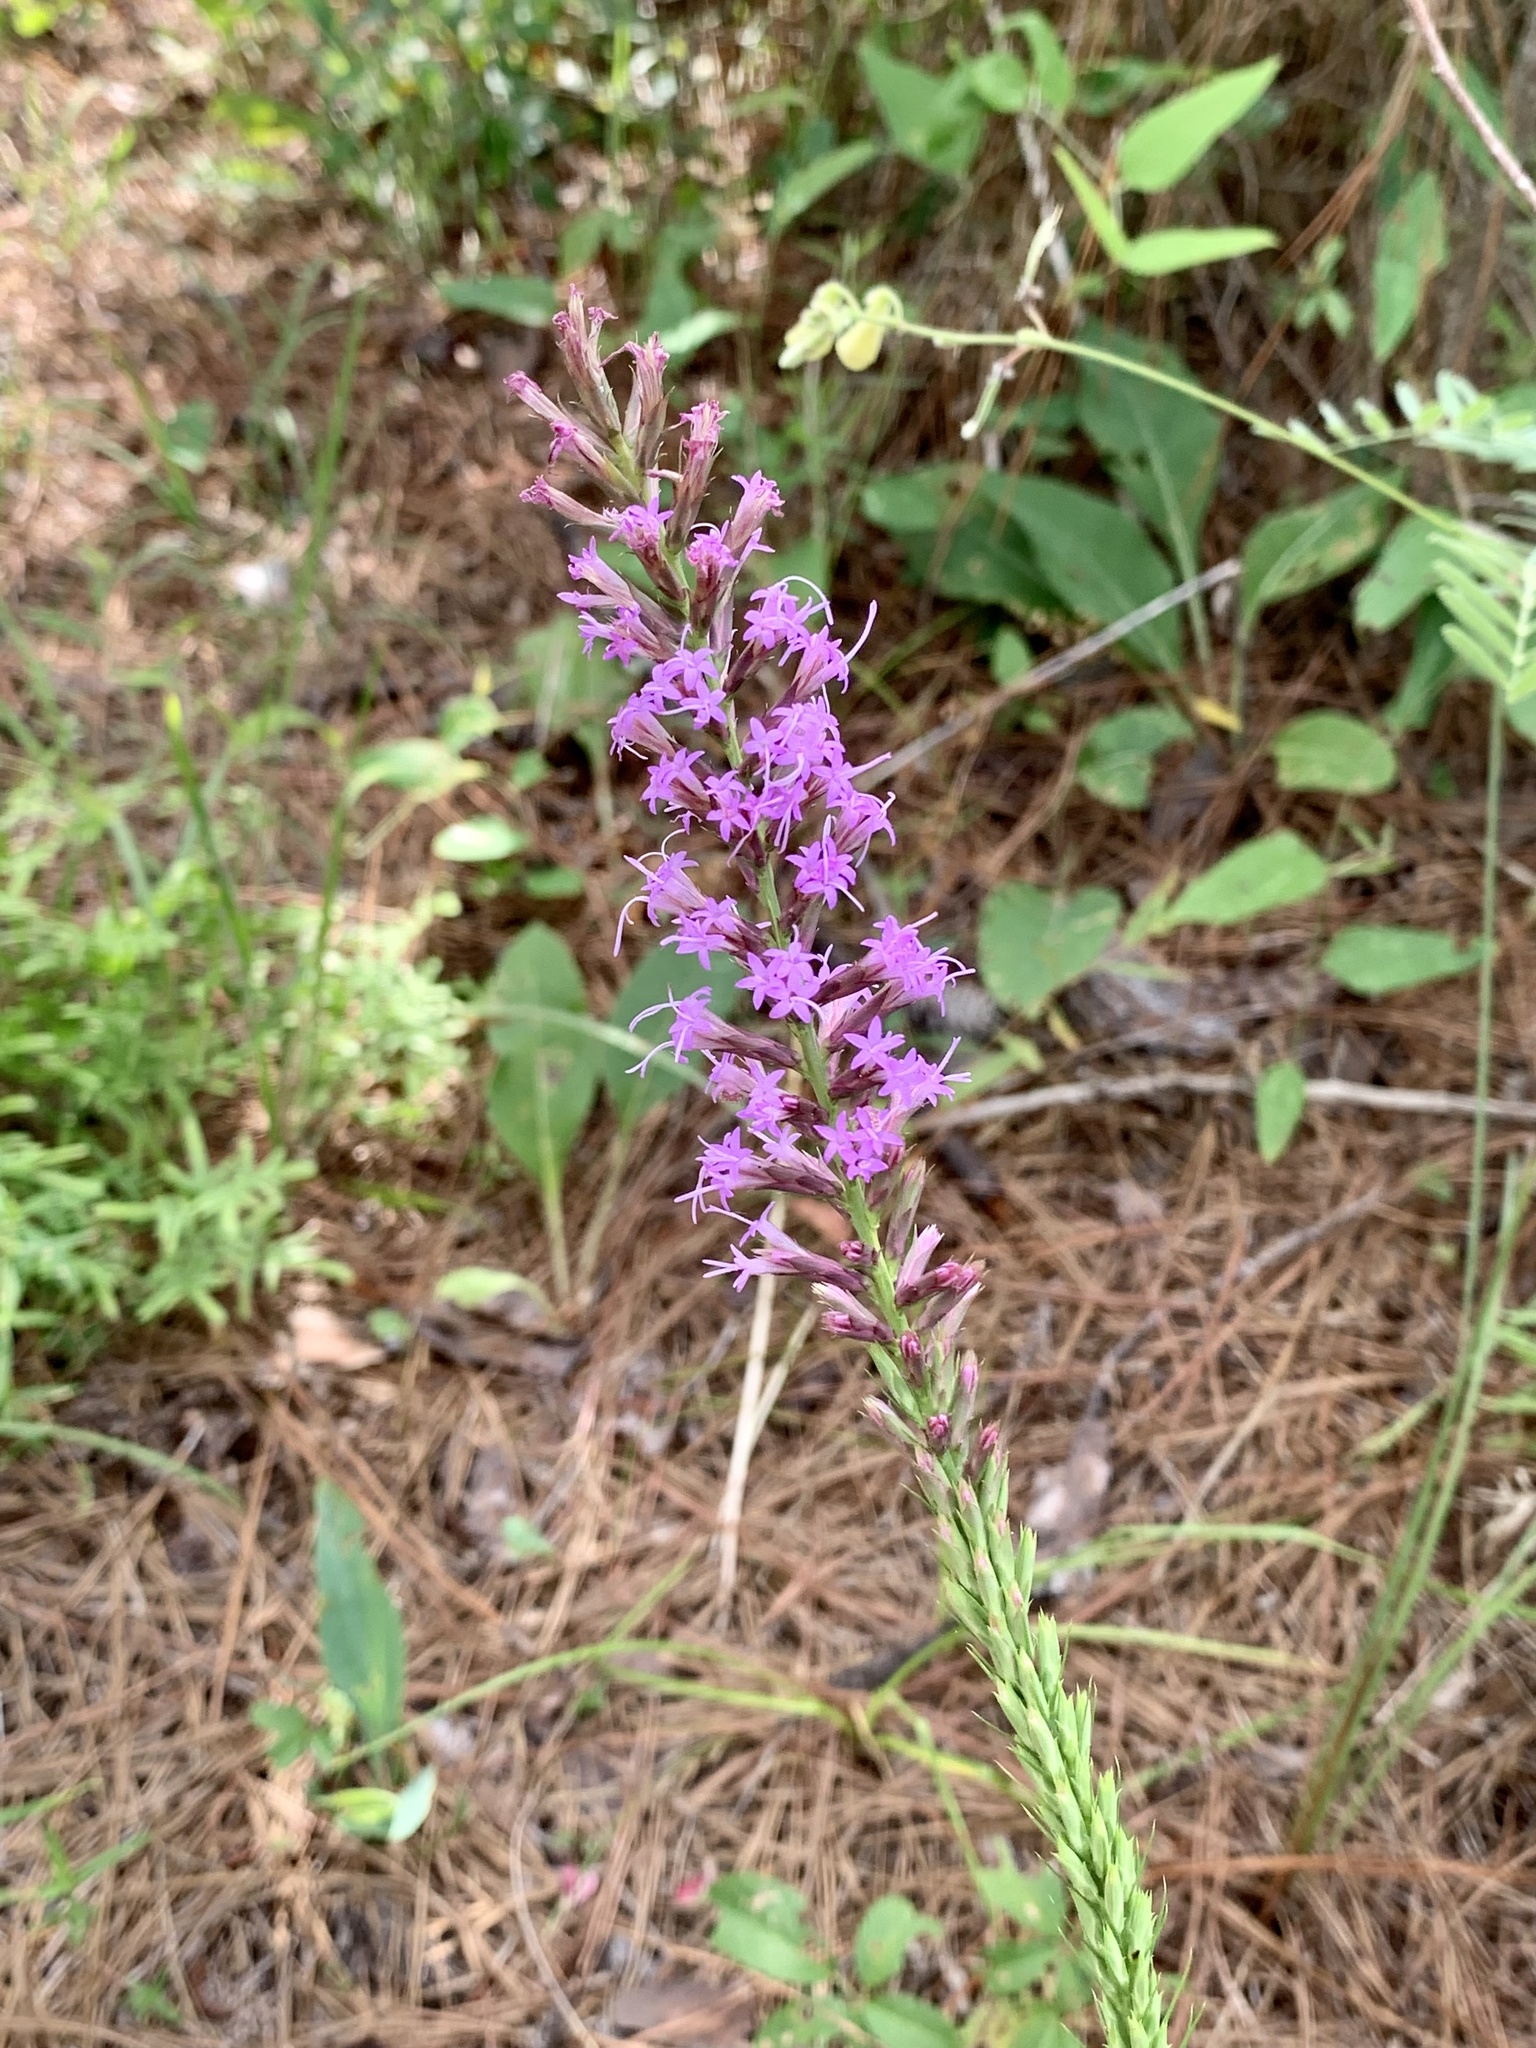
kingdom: Plantae
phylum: Tracheophyta
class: Magnoliopsida
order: Asterales
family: Asteraceae
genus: Liatris
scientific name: Liatris acidota
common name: Gulf coast gayfeather
